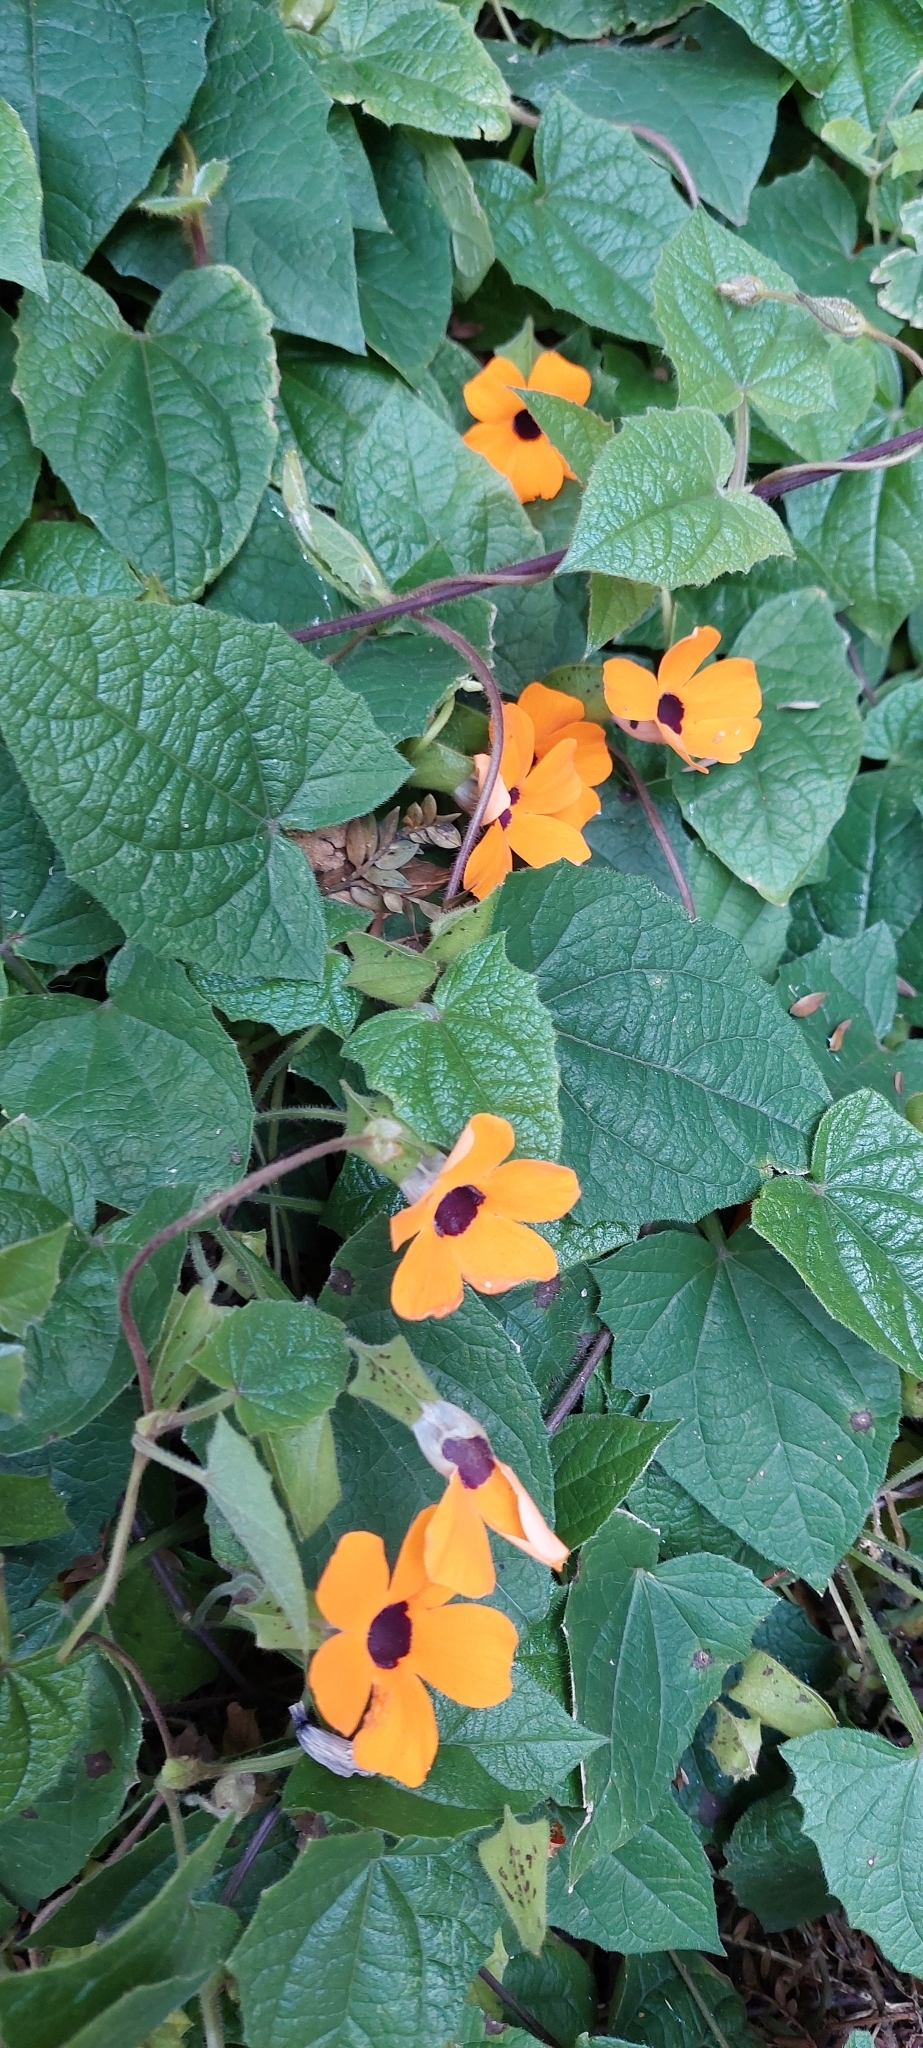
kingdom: Plantae
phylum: Tracheophyta
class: Magnoliopsida
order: Lamiales
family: Acanthaceae
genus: Thunbergia
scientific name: Thunbergia alata
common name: Blackeyed susan vine
